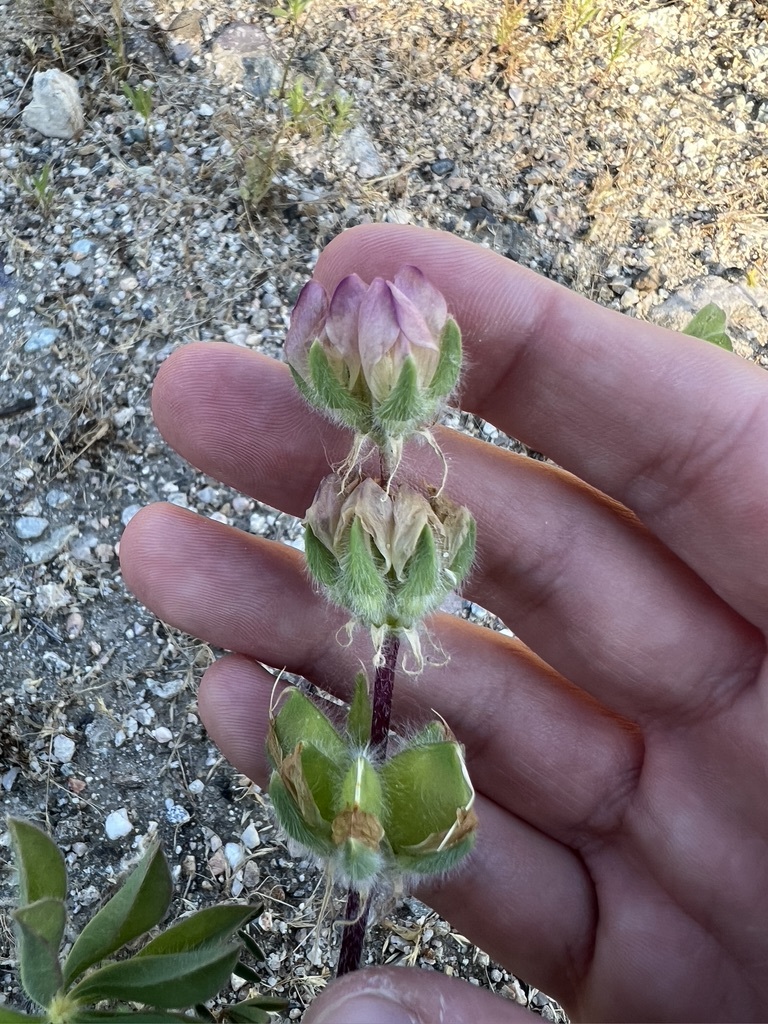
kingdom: Plantae
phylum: Tracheophyta
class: Magnoliopsida
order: Fabales
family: Fabaceae
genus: Lupinus
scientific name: Lupinus microcarpus
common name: Chick lupine
